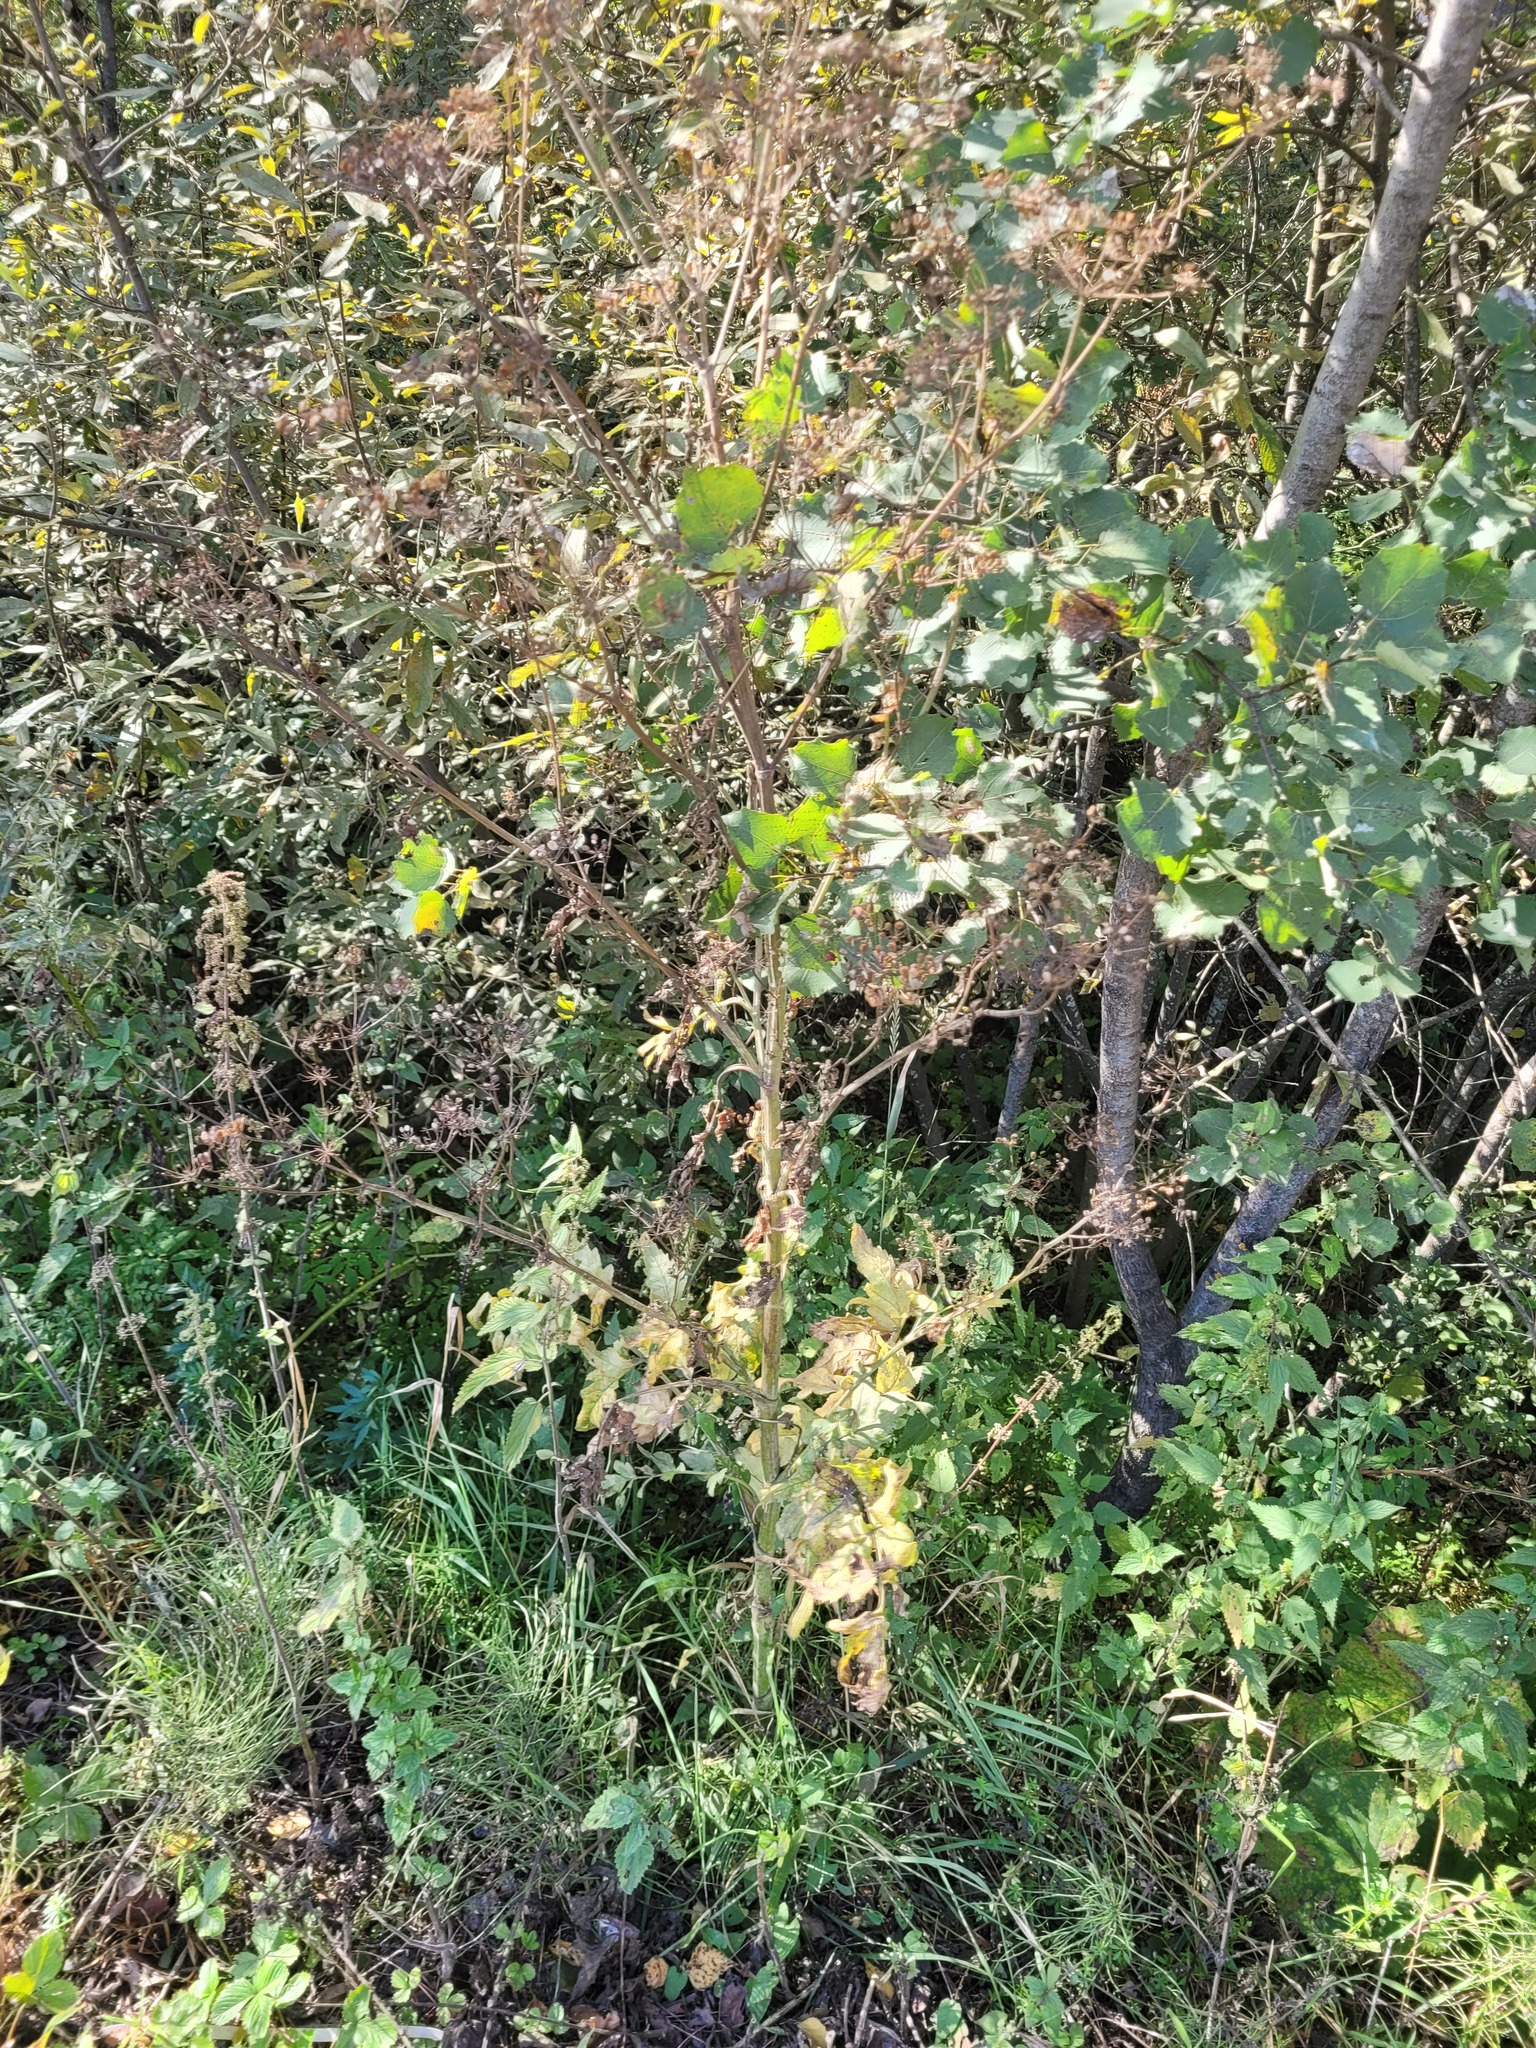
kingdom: Plantae
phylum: Tracheophyta
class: Magnoliopsida
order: Apiales
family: Apiaceae
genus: Pastinaca
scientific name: Pastinaca sativa
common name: Wild parsnip
